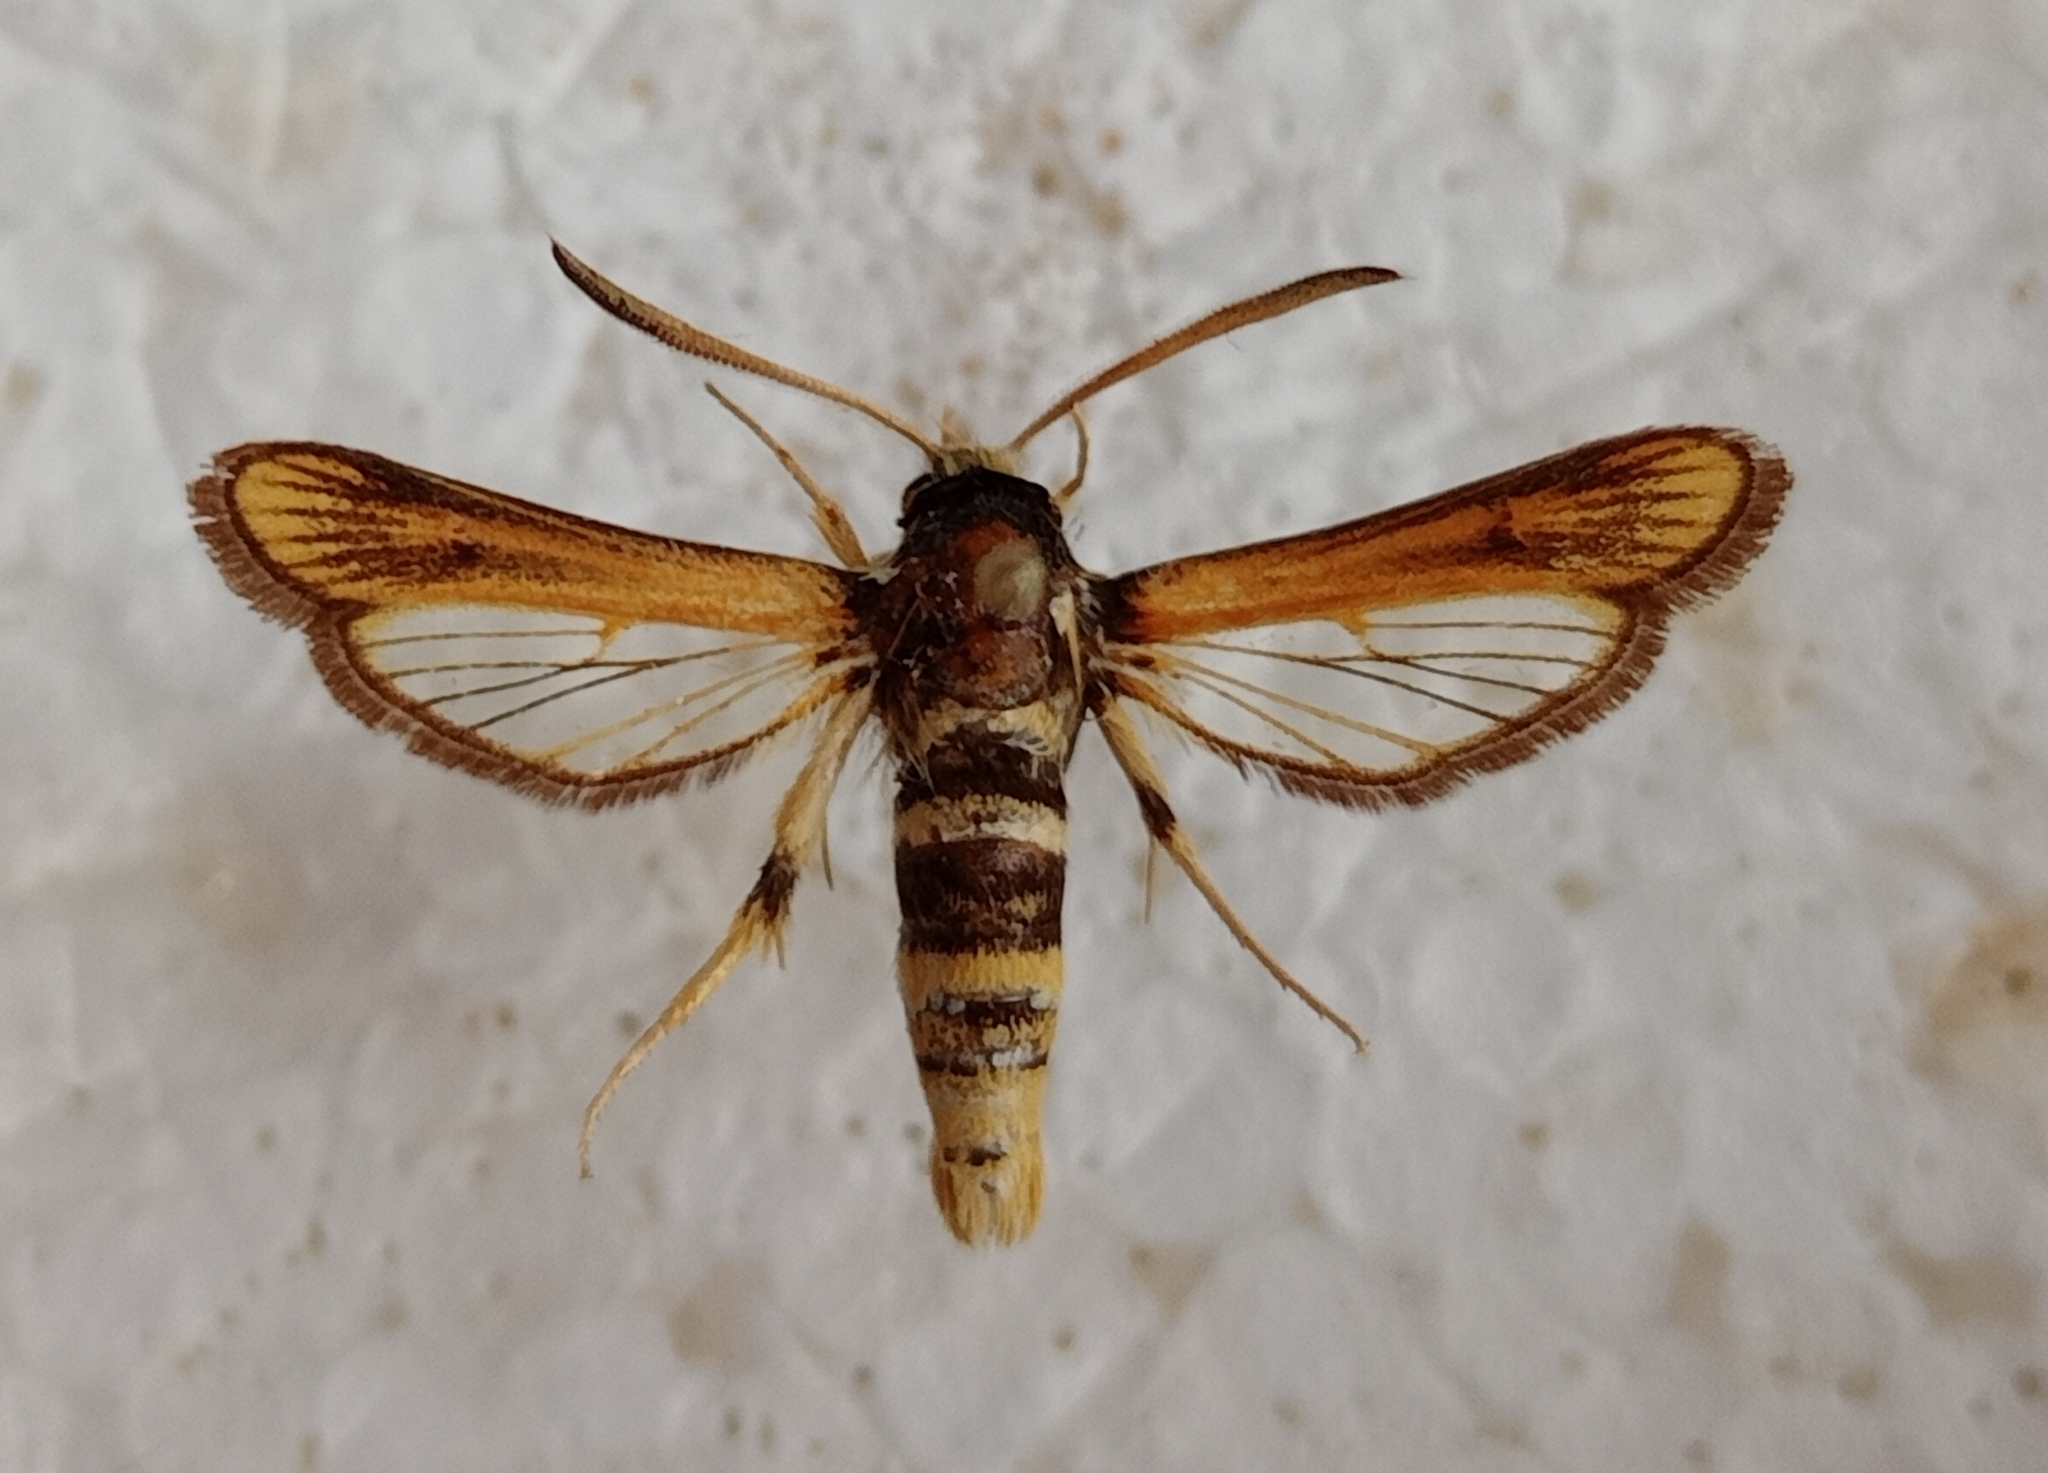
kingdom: Animalia
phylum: Arthropoda
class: Insecta
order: Lepidoptera
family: Sesiidae
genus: Bembecia
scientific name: Bembecia sanguinolenta
